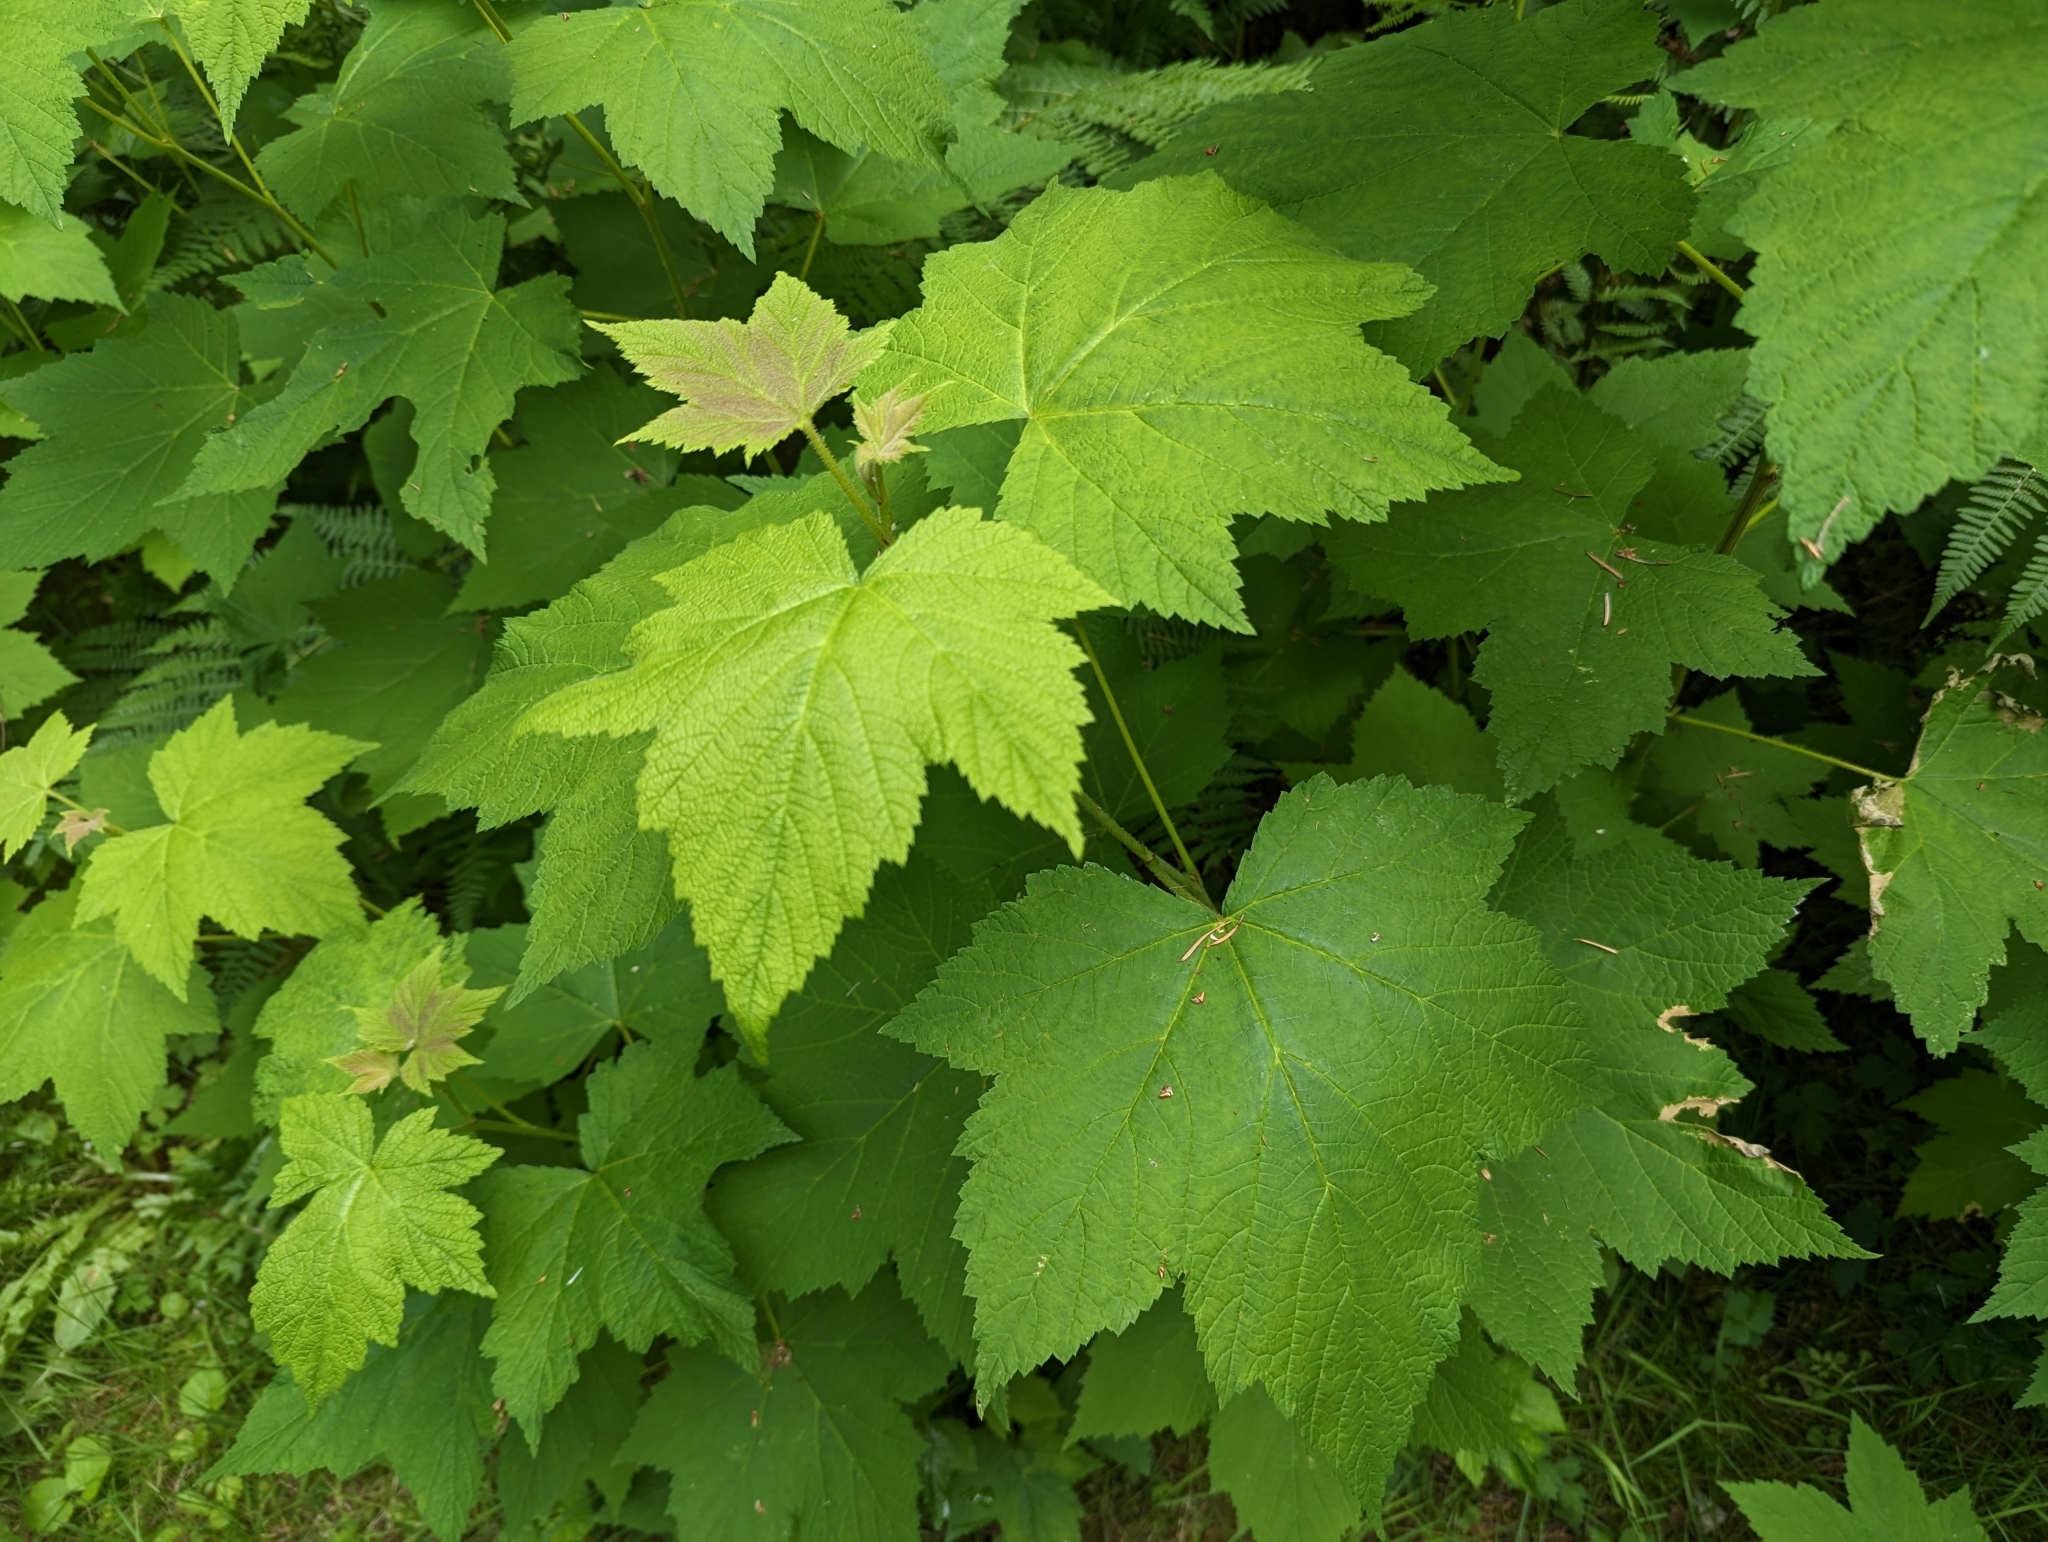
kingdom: Plantae
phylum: Tracheophyta
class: Magnoliopsida
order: Rosales
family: Rosaceae
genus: Rubus
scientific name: Rubus parviflorus
